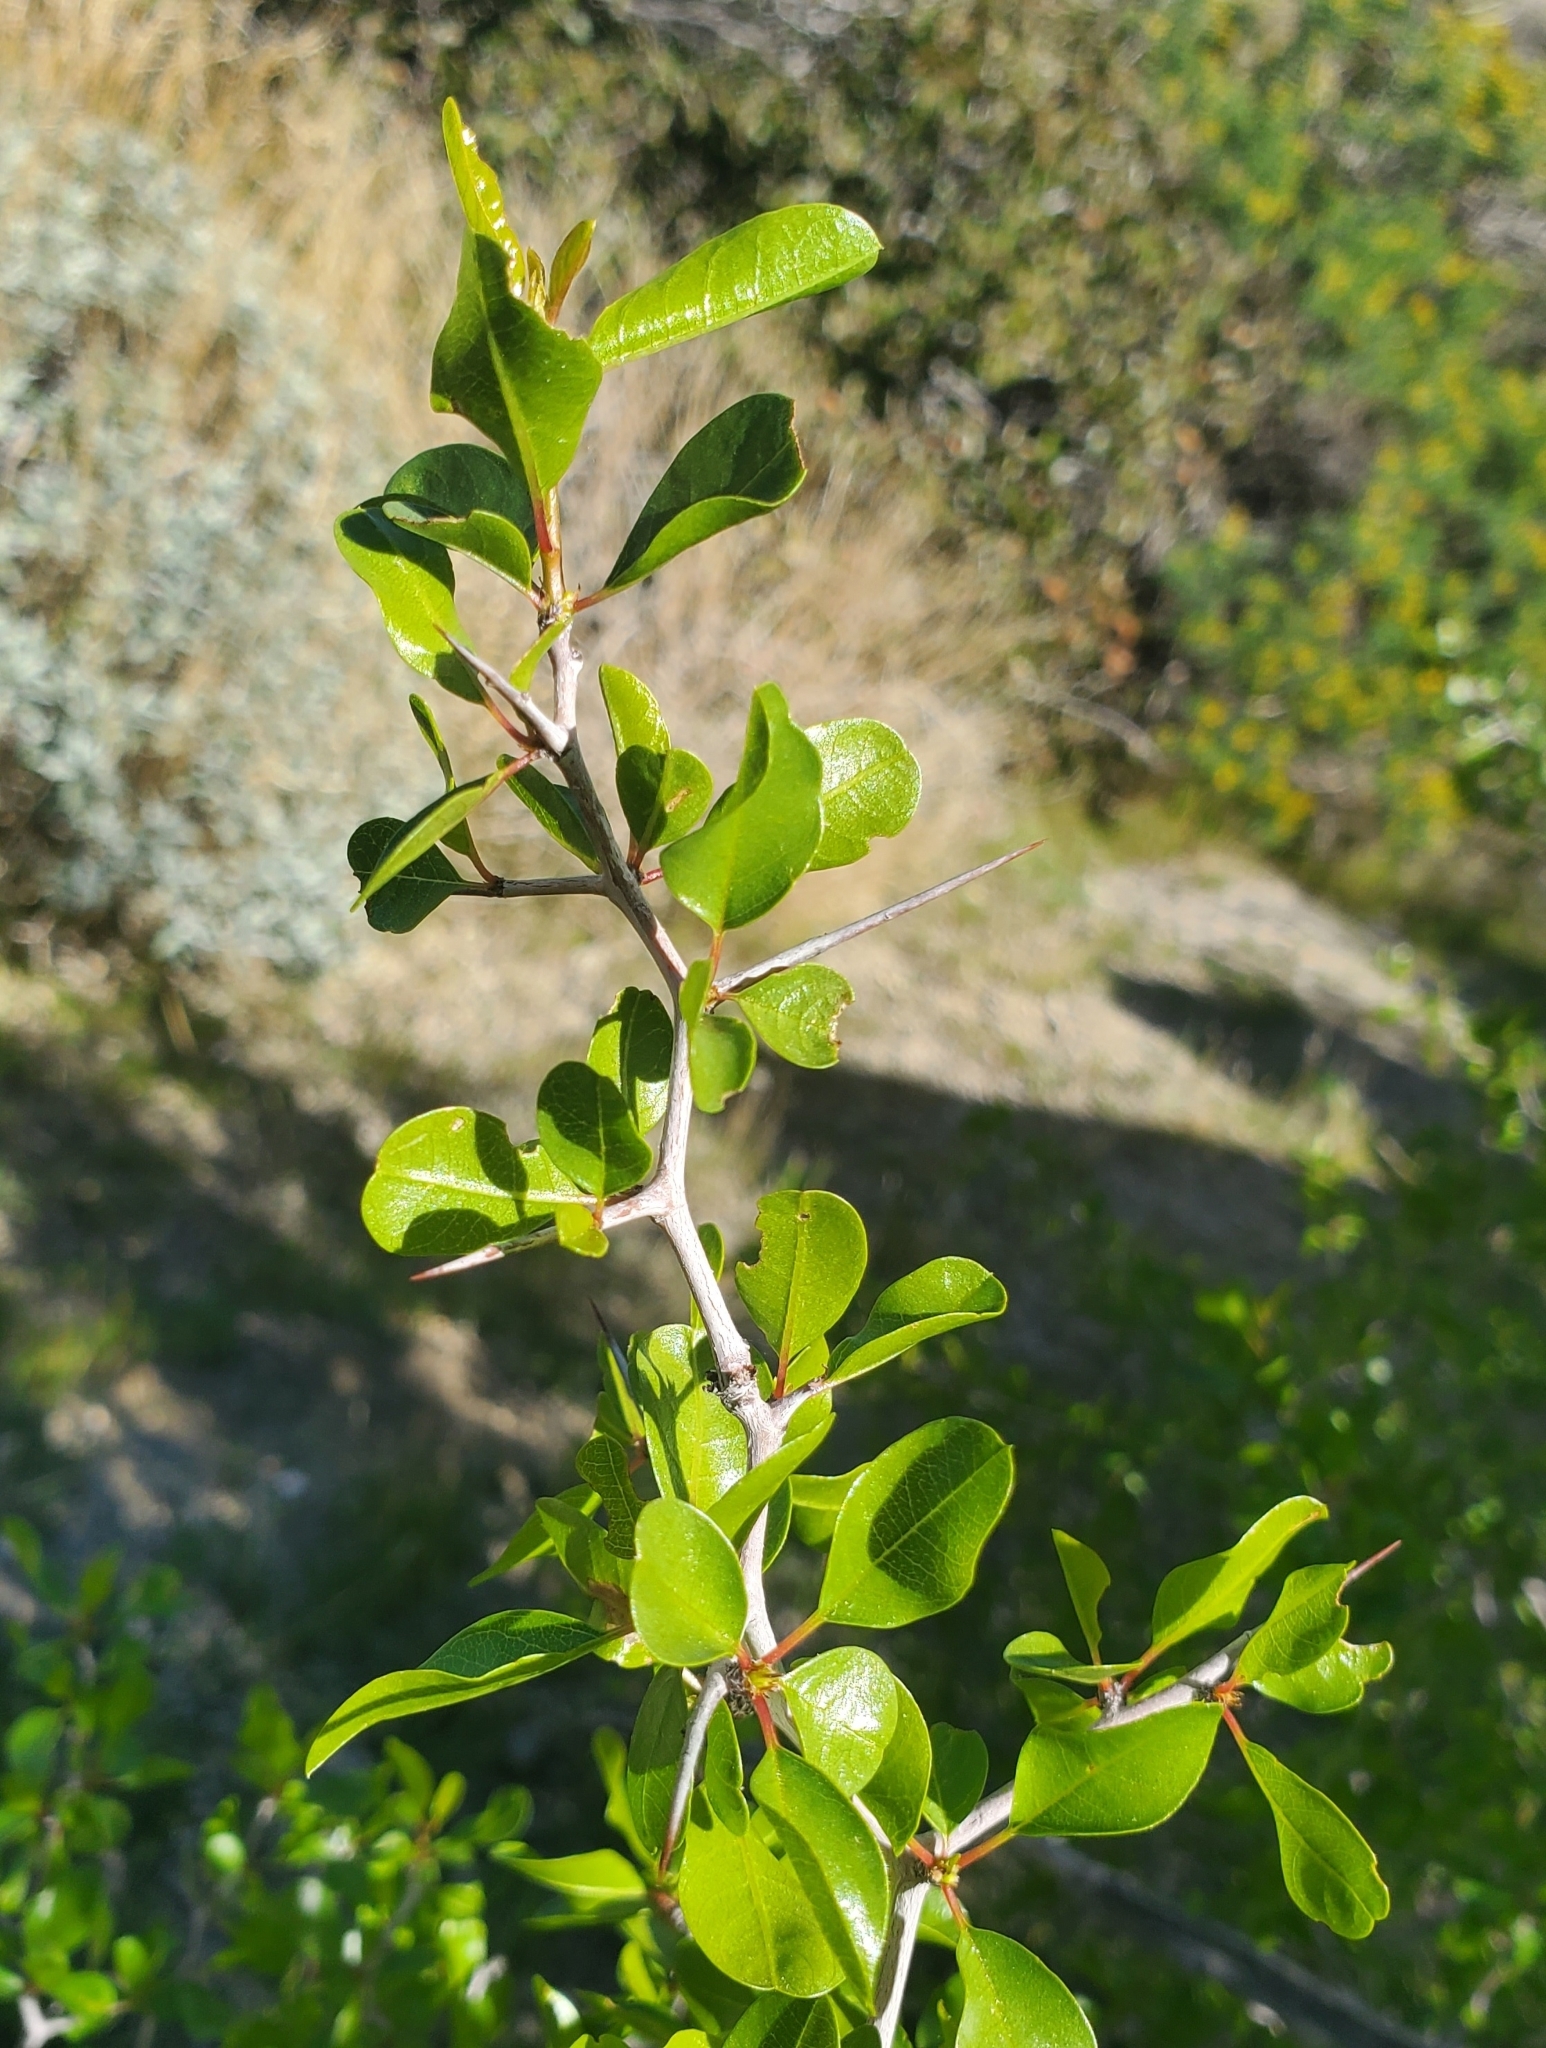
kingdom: Plantae
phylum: Tracheophyta
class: Magnoliopsida
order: Rosales
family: Rhamnaceae
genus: Pseudoziziphus
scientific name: Pseudoziziphus parryi
